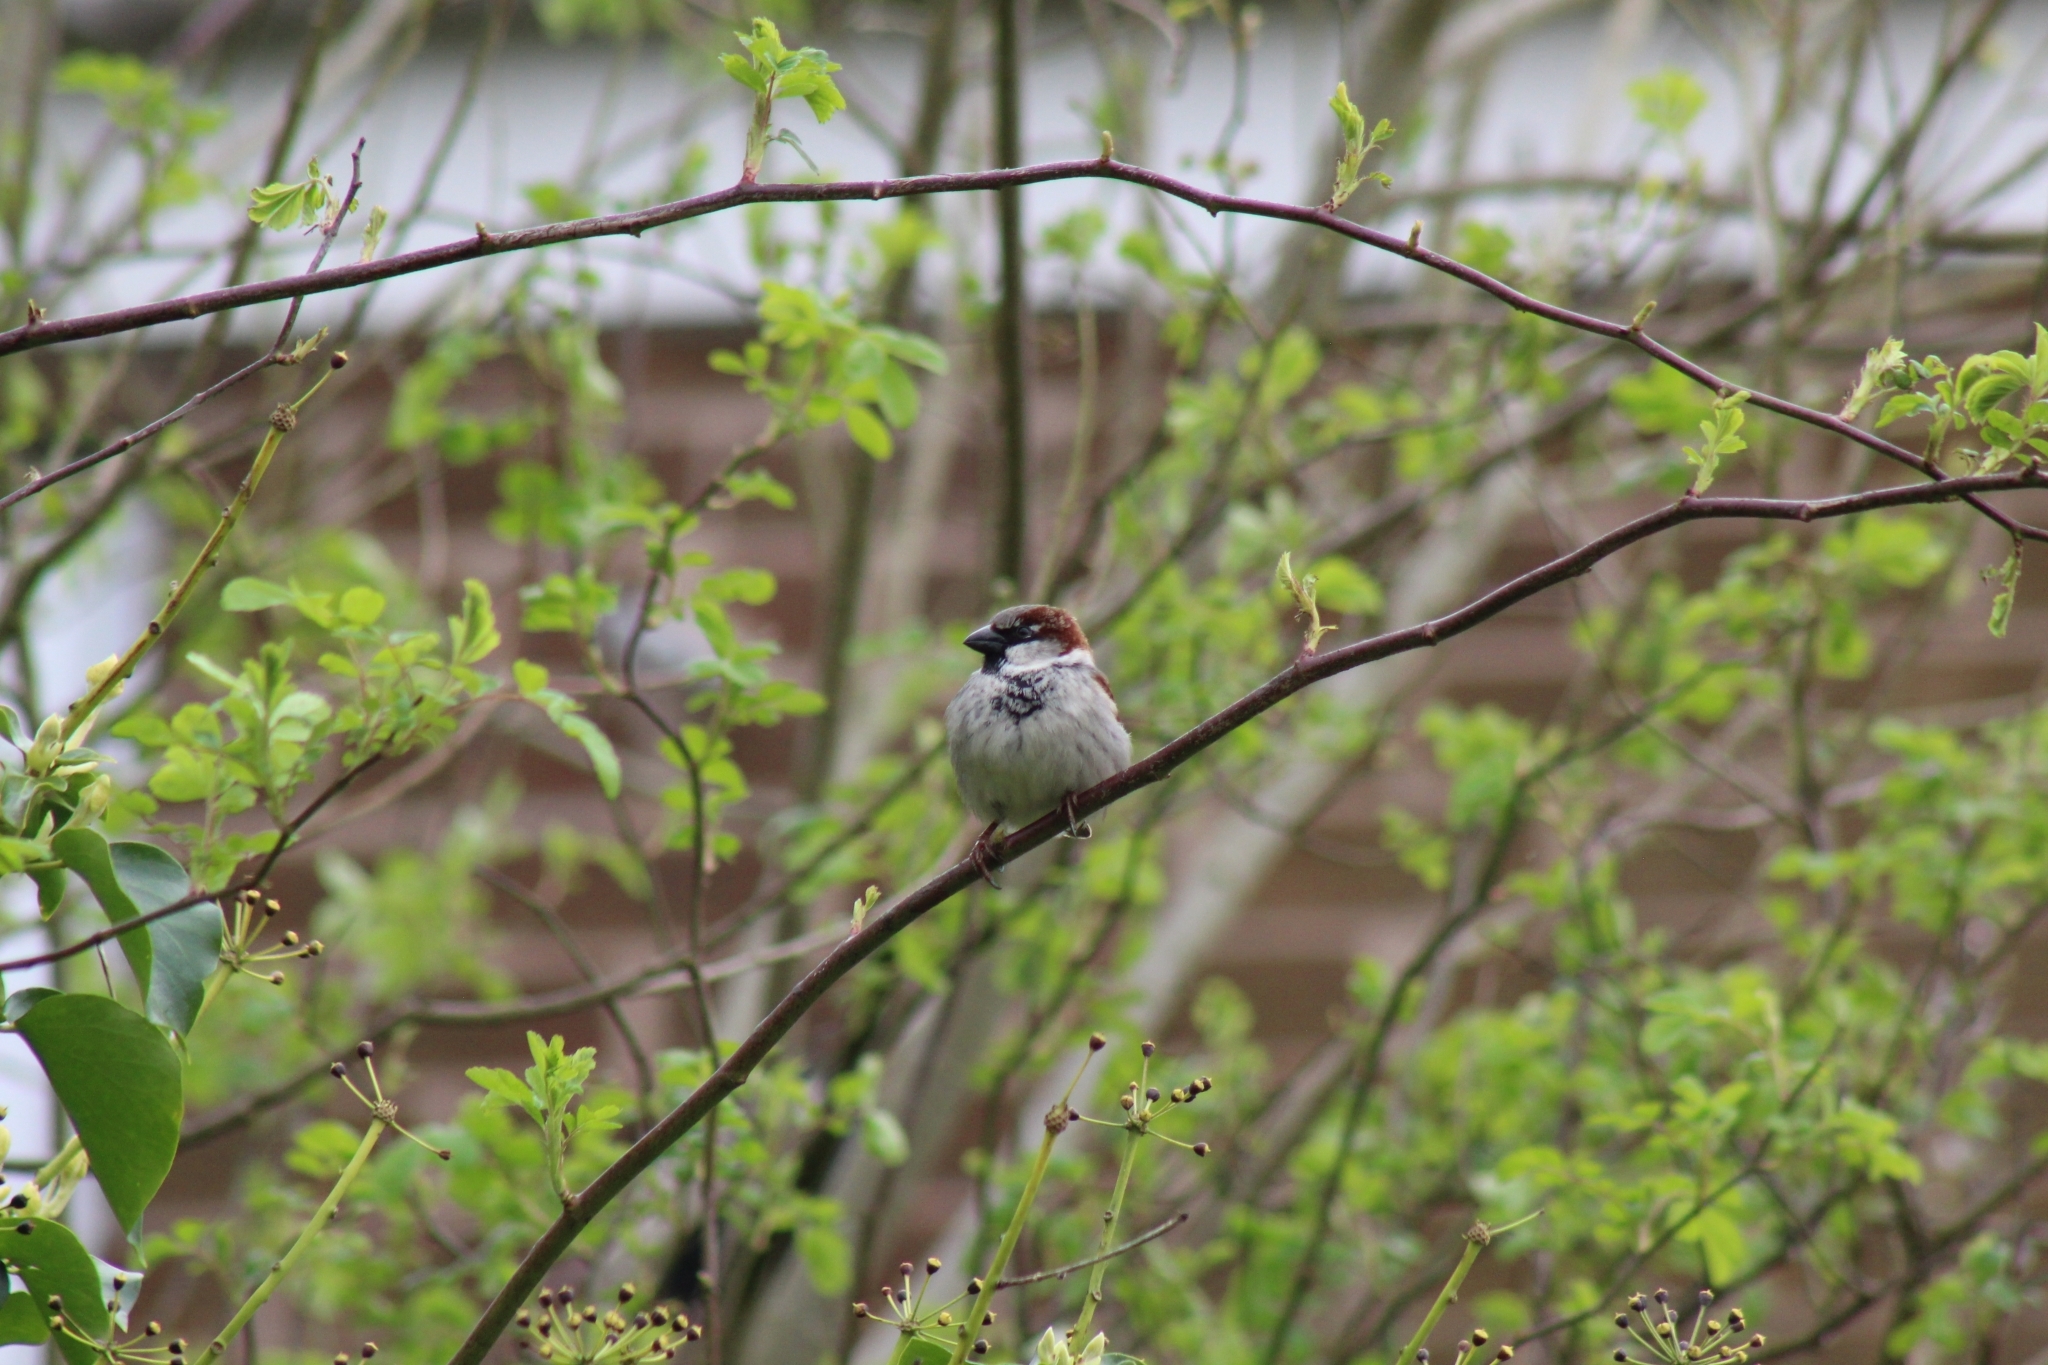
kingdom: Animalia
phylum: Chordata
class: Aves
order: Passeriformes
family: Passeridae
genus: Passer
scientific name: Passer domesticus
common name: House sparrow
